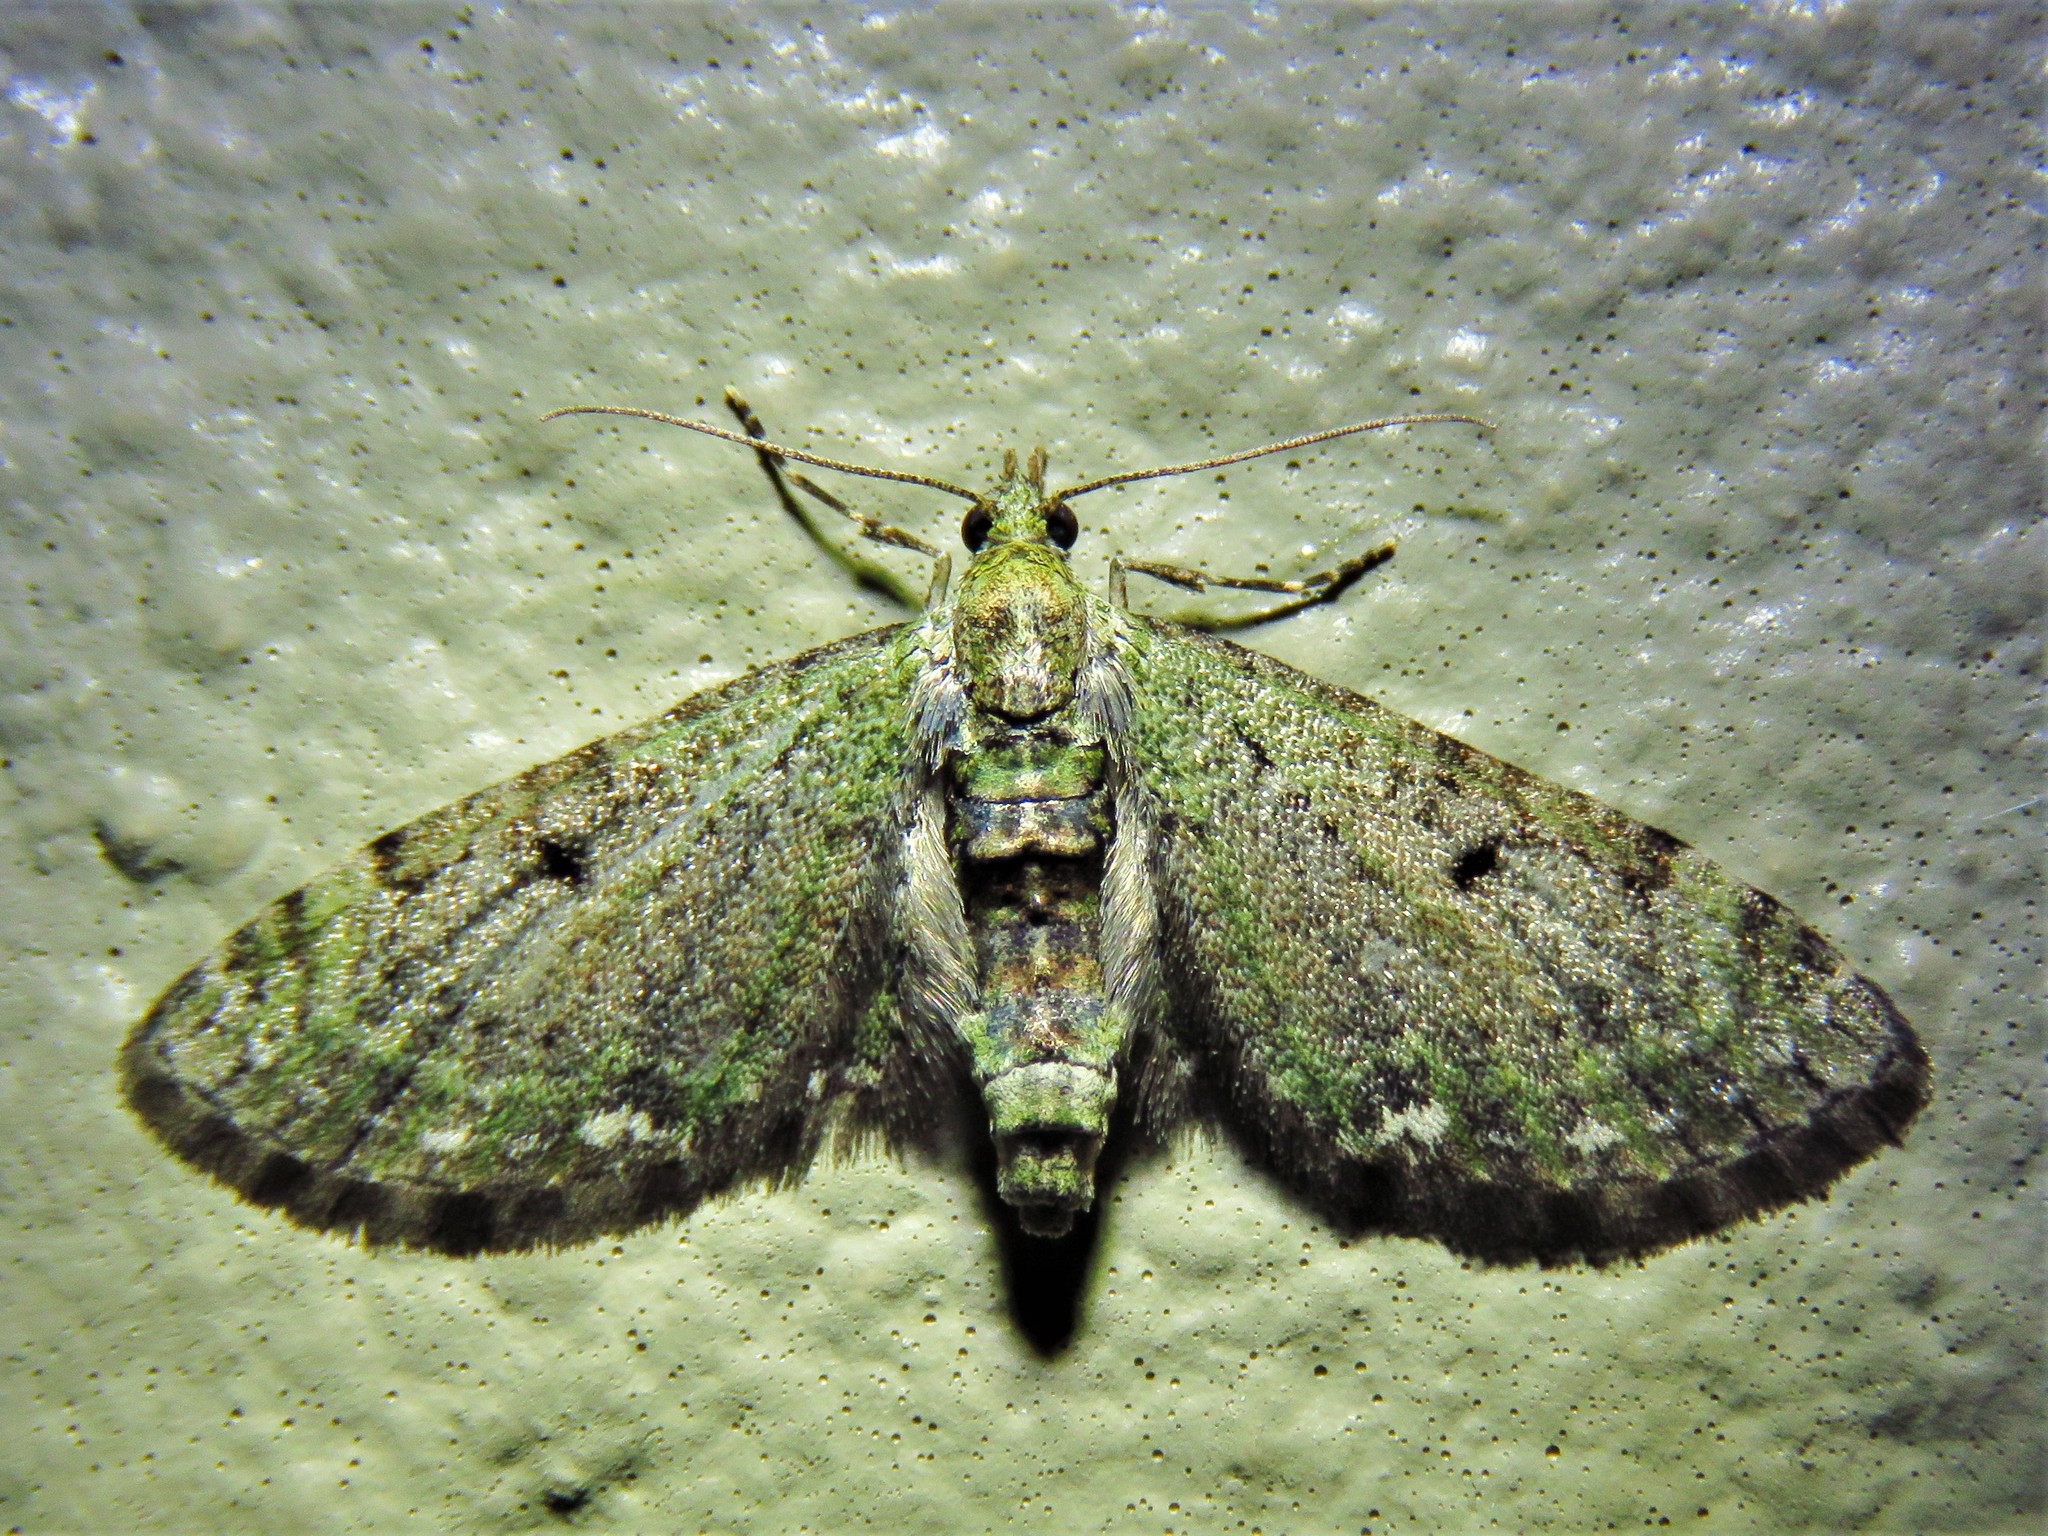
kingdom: Animalia
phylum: Arthropoda
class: Insecta
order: Lepidoptera
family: Geometridae
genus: Eupithecia
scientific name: Eupithecia miserulata
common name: Common eupithecia
